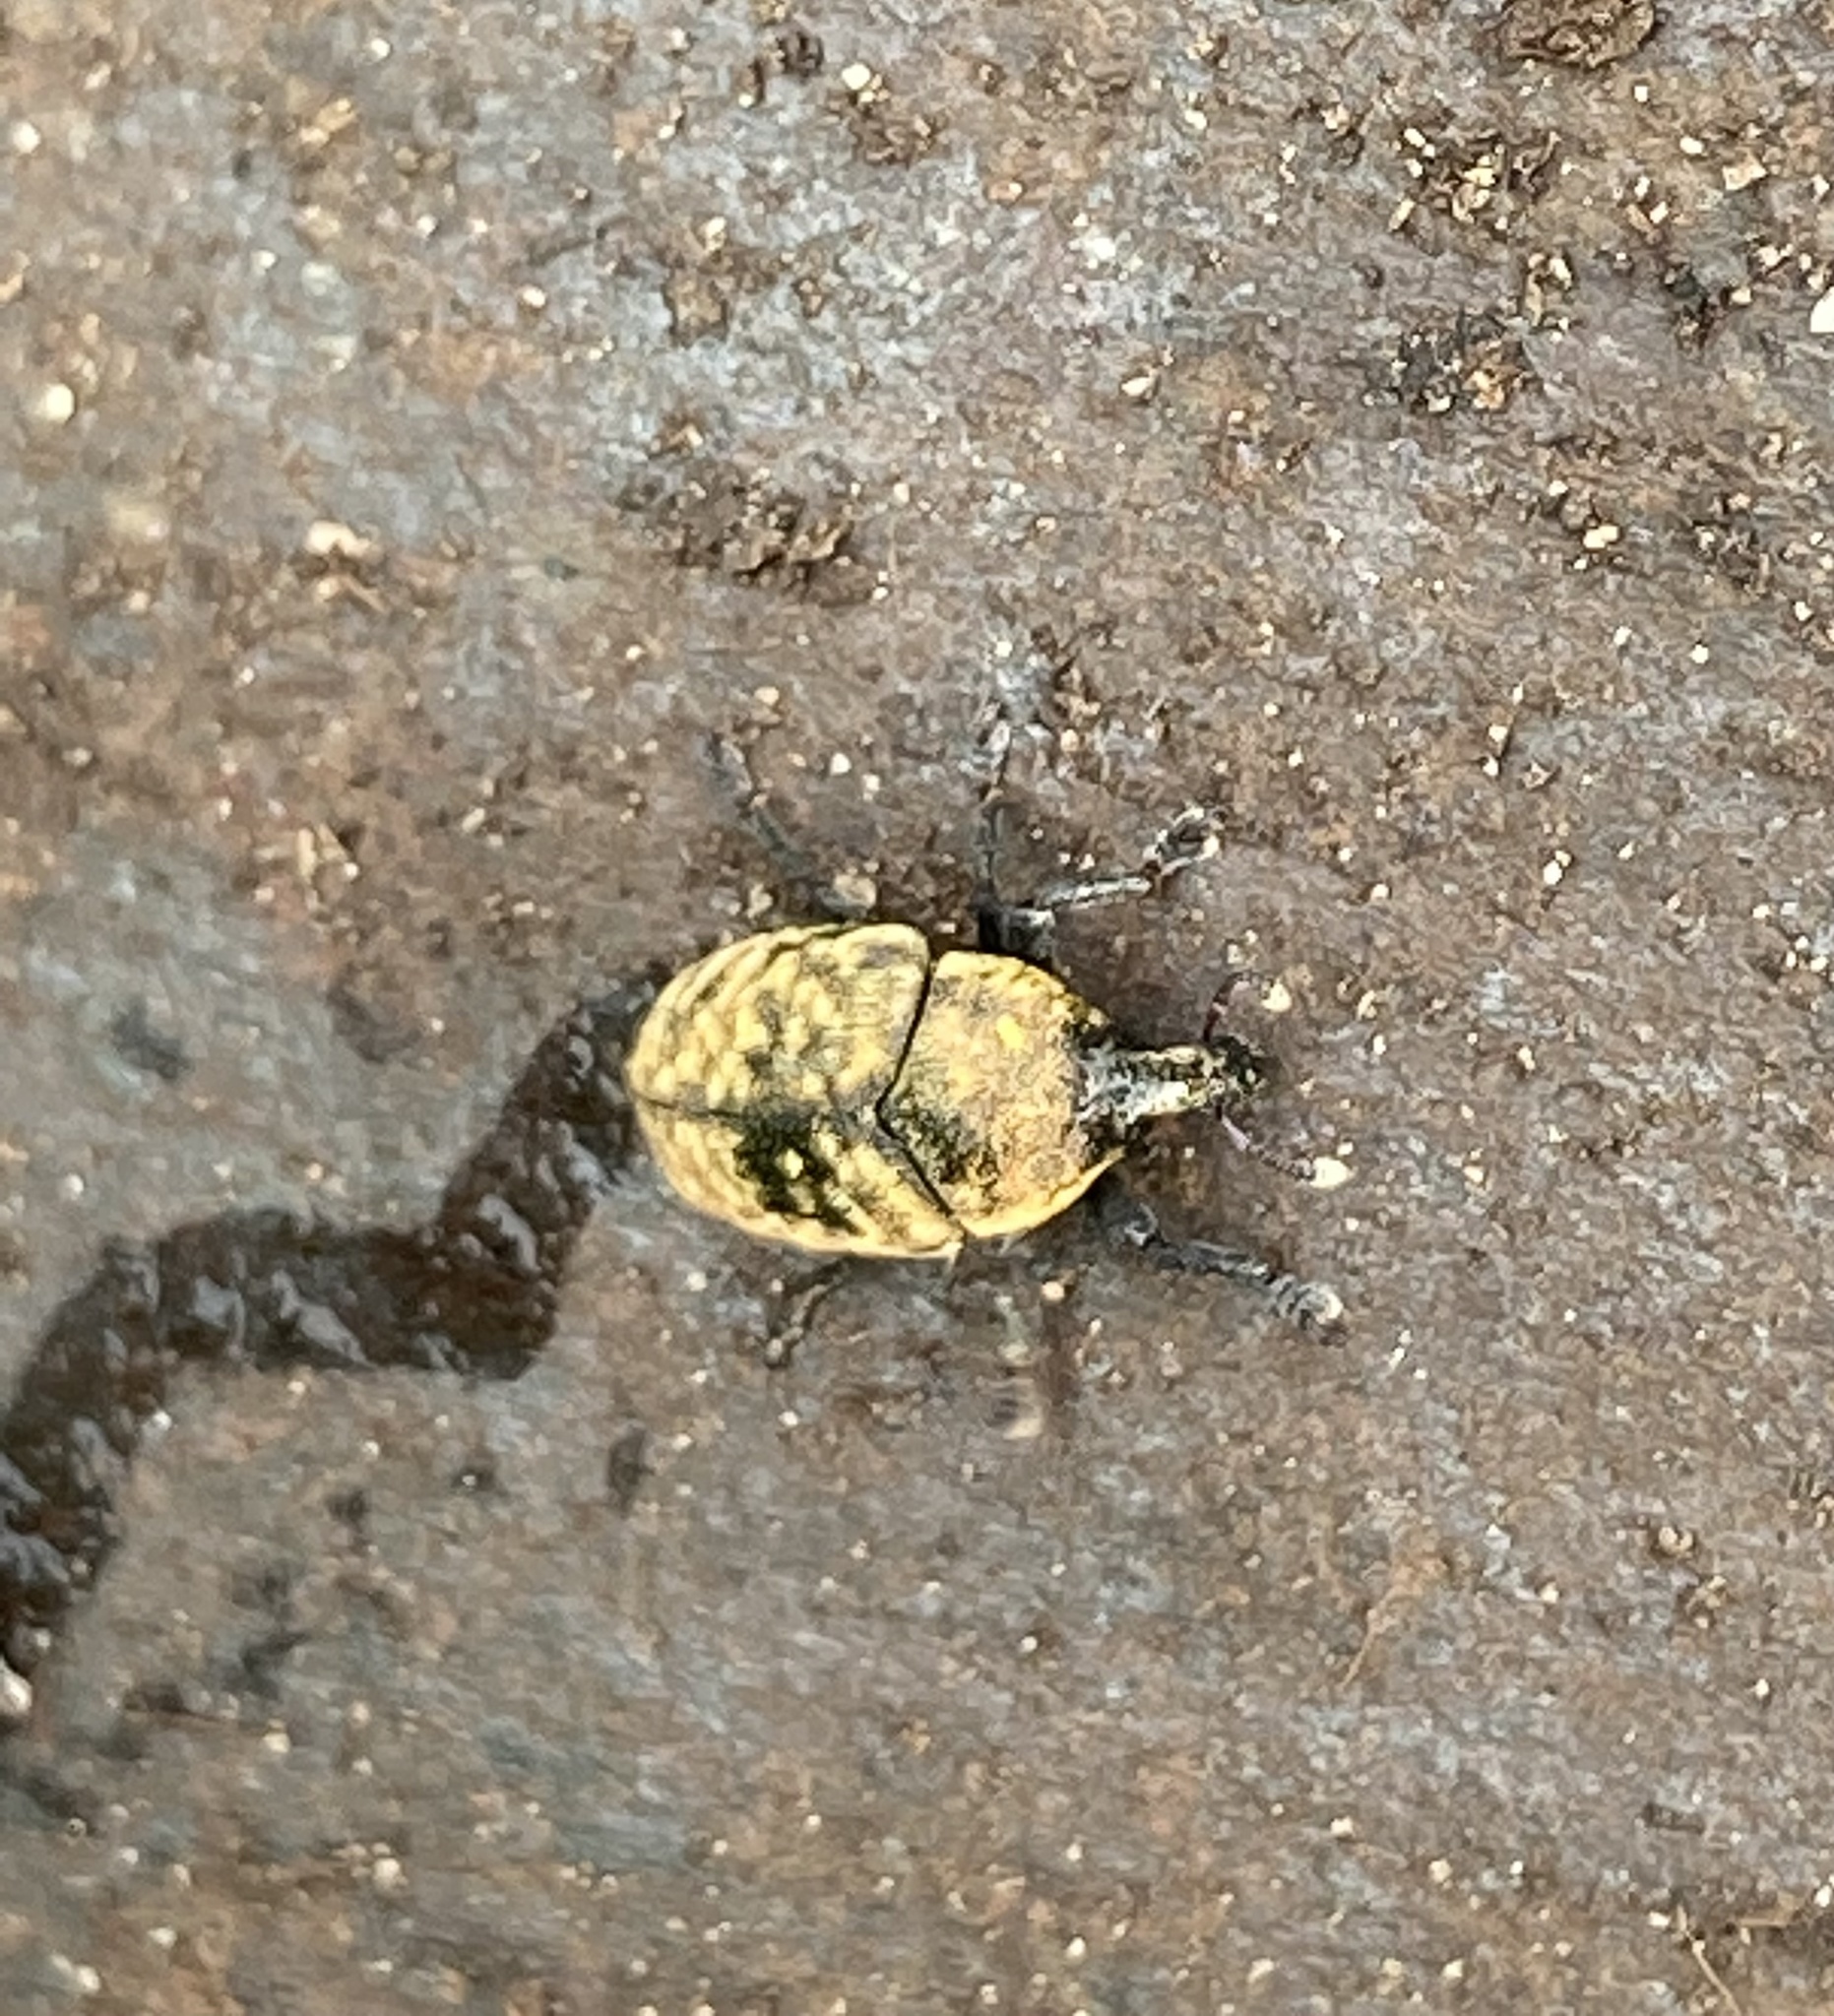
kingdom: Animalia
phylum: Arthropoda
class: Insecta
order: Coleoptera
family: Curculionidae
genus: Larinus
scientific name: Larinus obtusus
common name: Weevil
